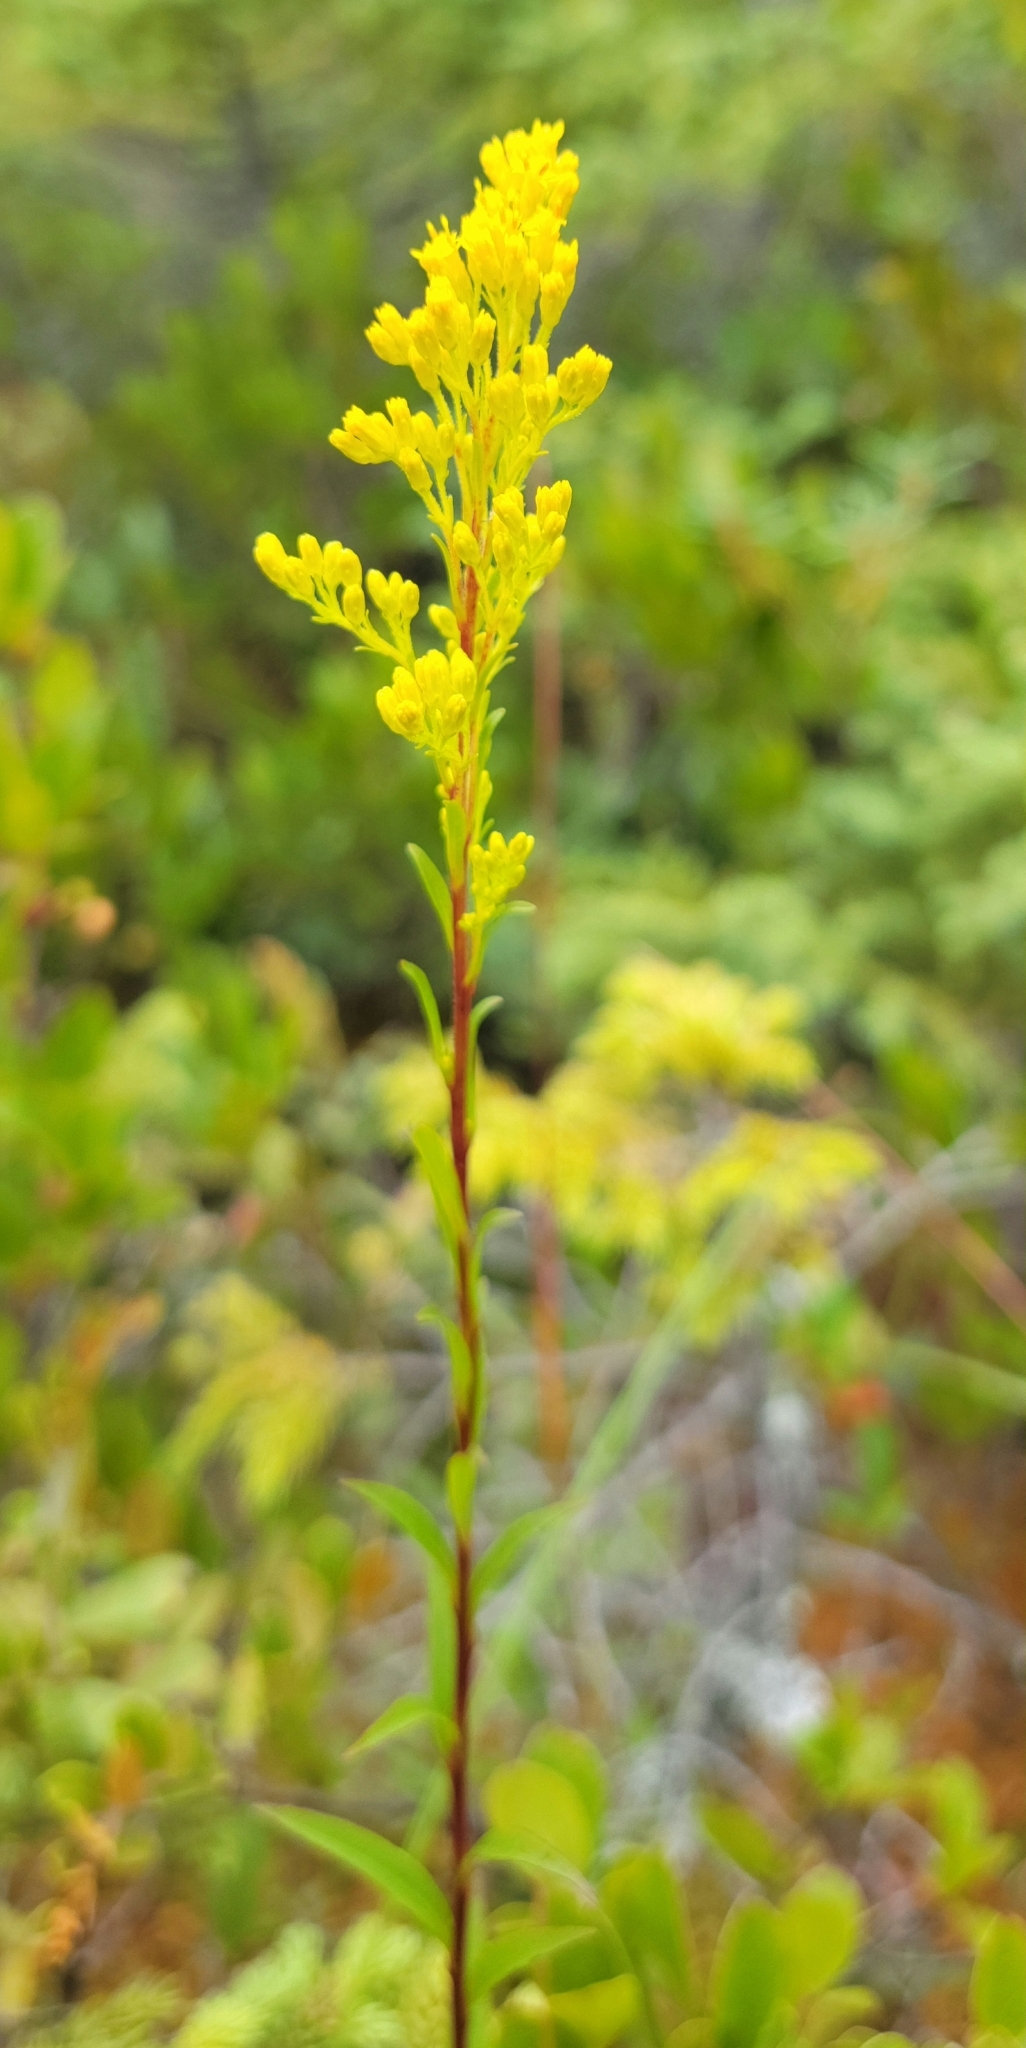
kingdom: Plantae
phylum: Tracheophyta
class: Magnoliopsida
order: Asterales
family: Asteraceae
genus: Solidago
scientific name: Solidago uliginosa
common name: Bog goldenrod
